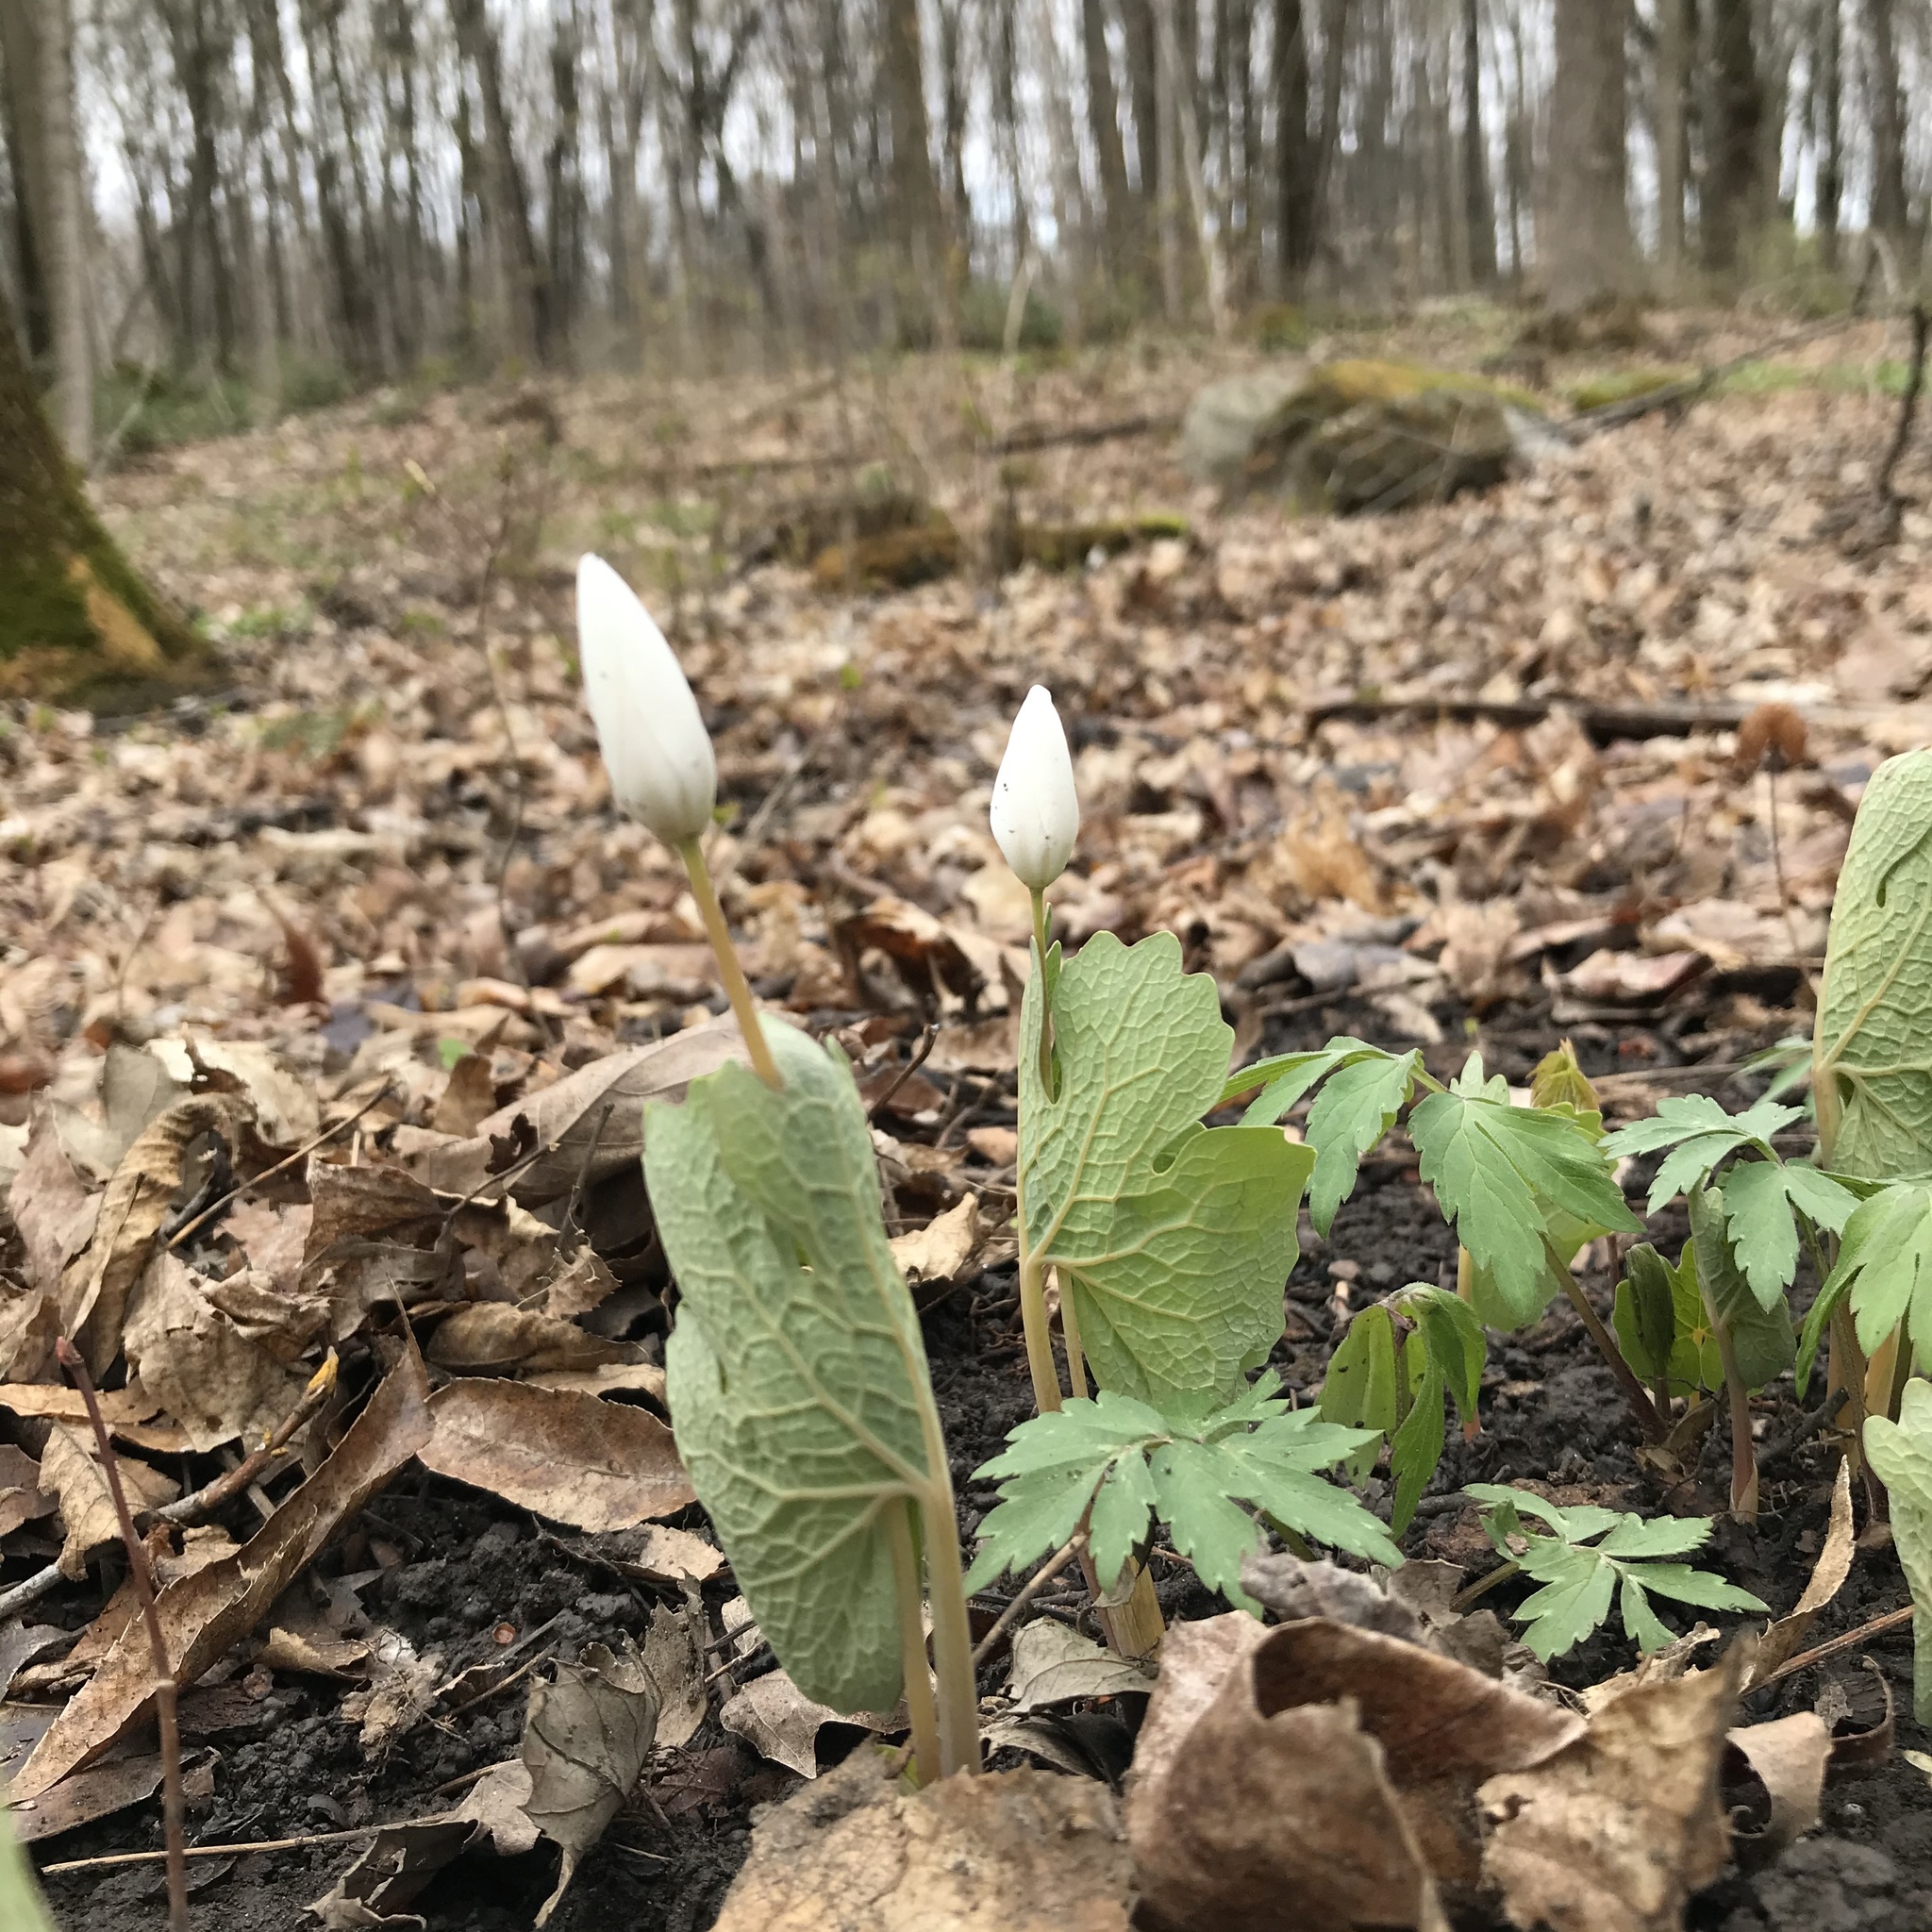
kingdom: Plantae
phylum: Tracheophyta
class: Magnoliopsida
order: Ranunculales
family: Papaveraceae
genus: Sanguinaria
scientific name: Sanguinaria canadensis
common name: Bloodroot
